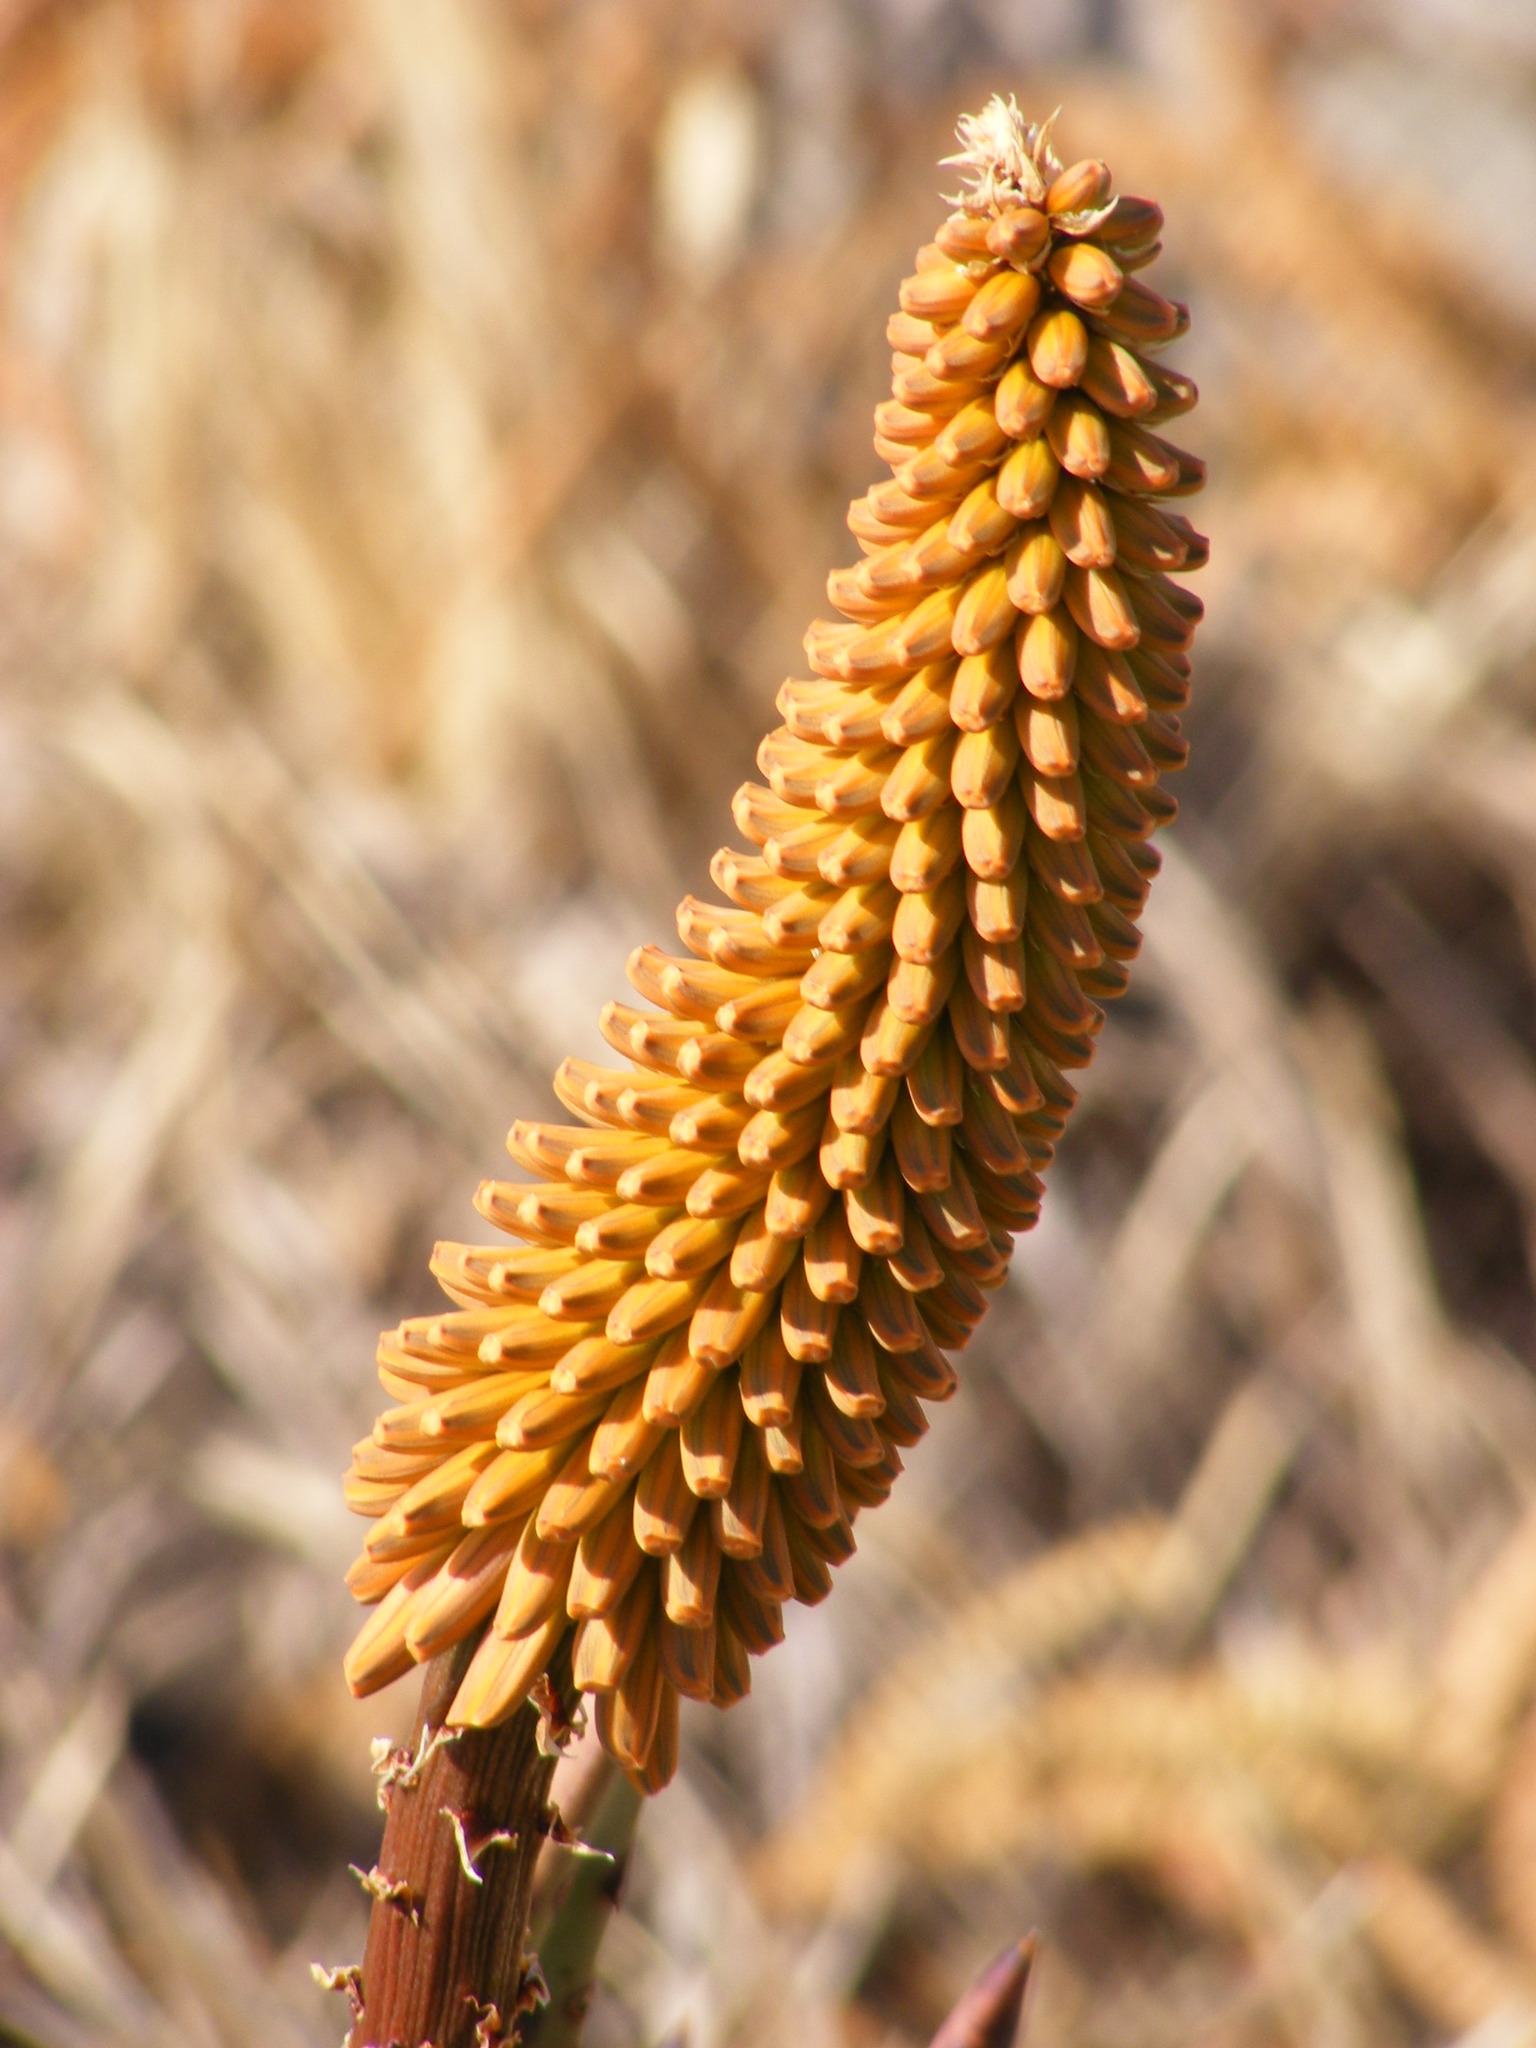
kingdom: Plantae
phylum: Tracheophyta
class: Liliopsida
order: Asparagales
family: Asphodelaceae
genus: Aloe
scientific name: Aloe petricola
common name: Rock aloe
